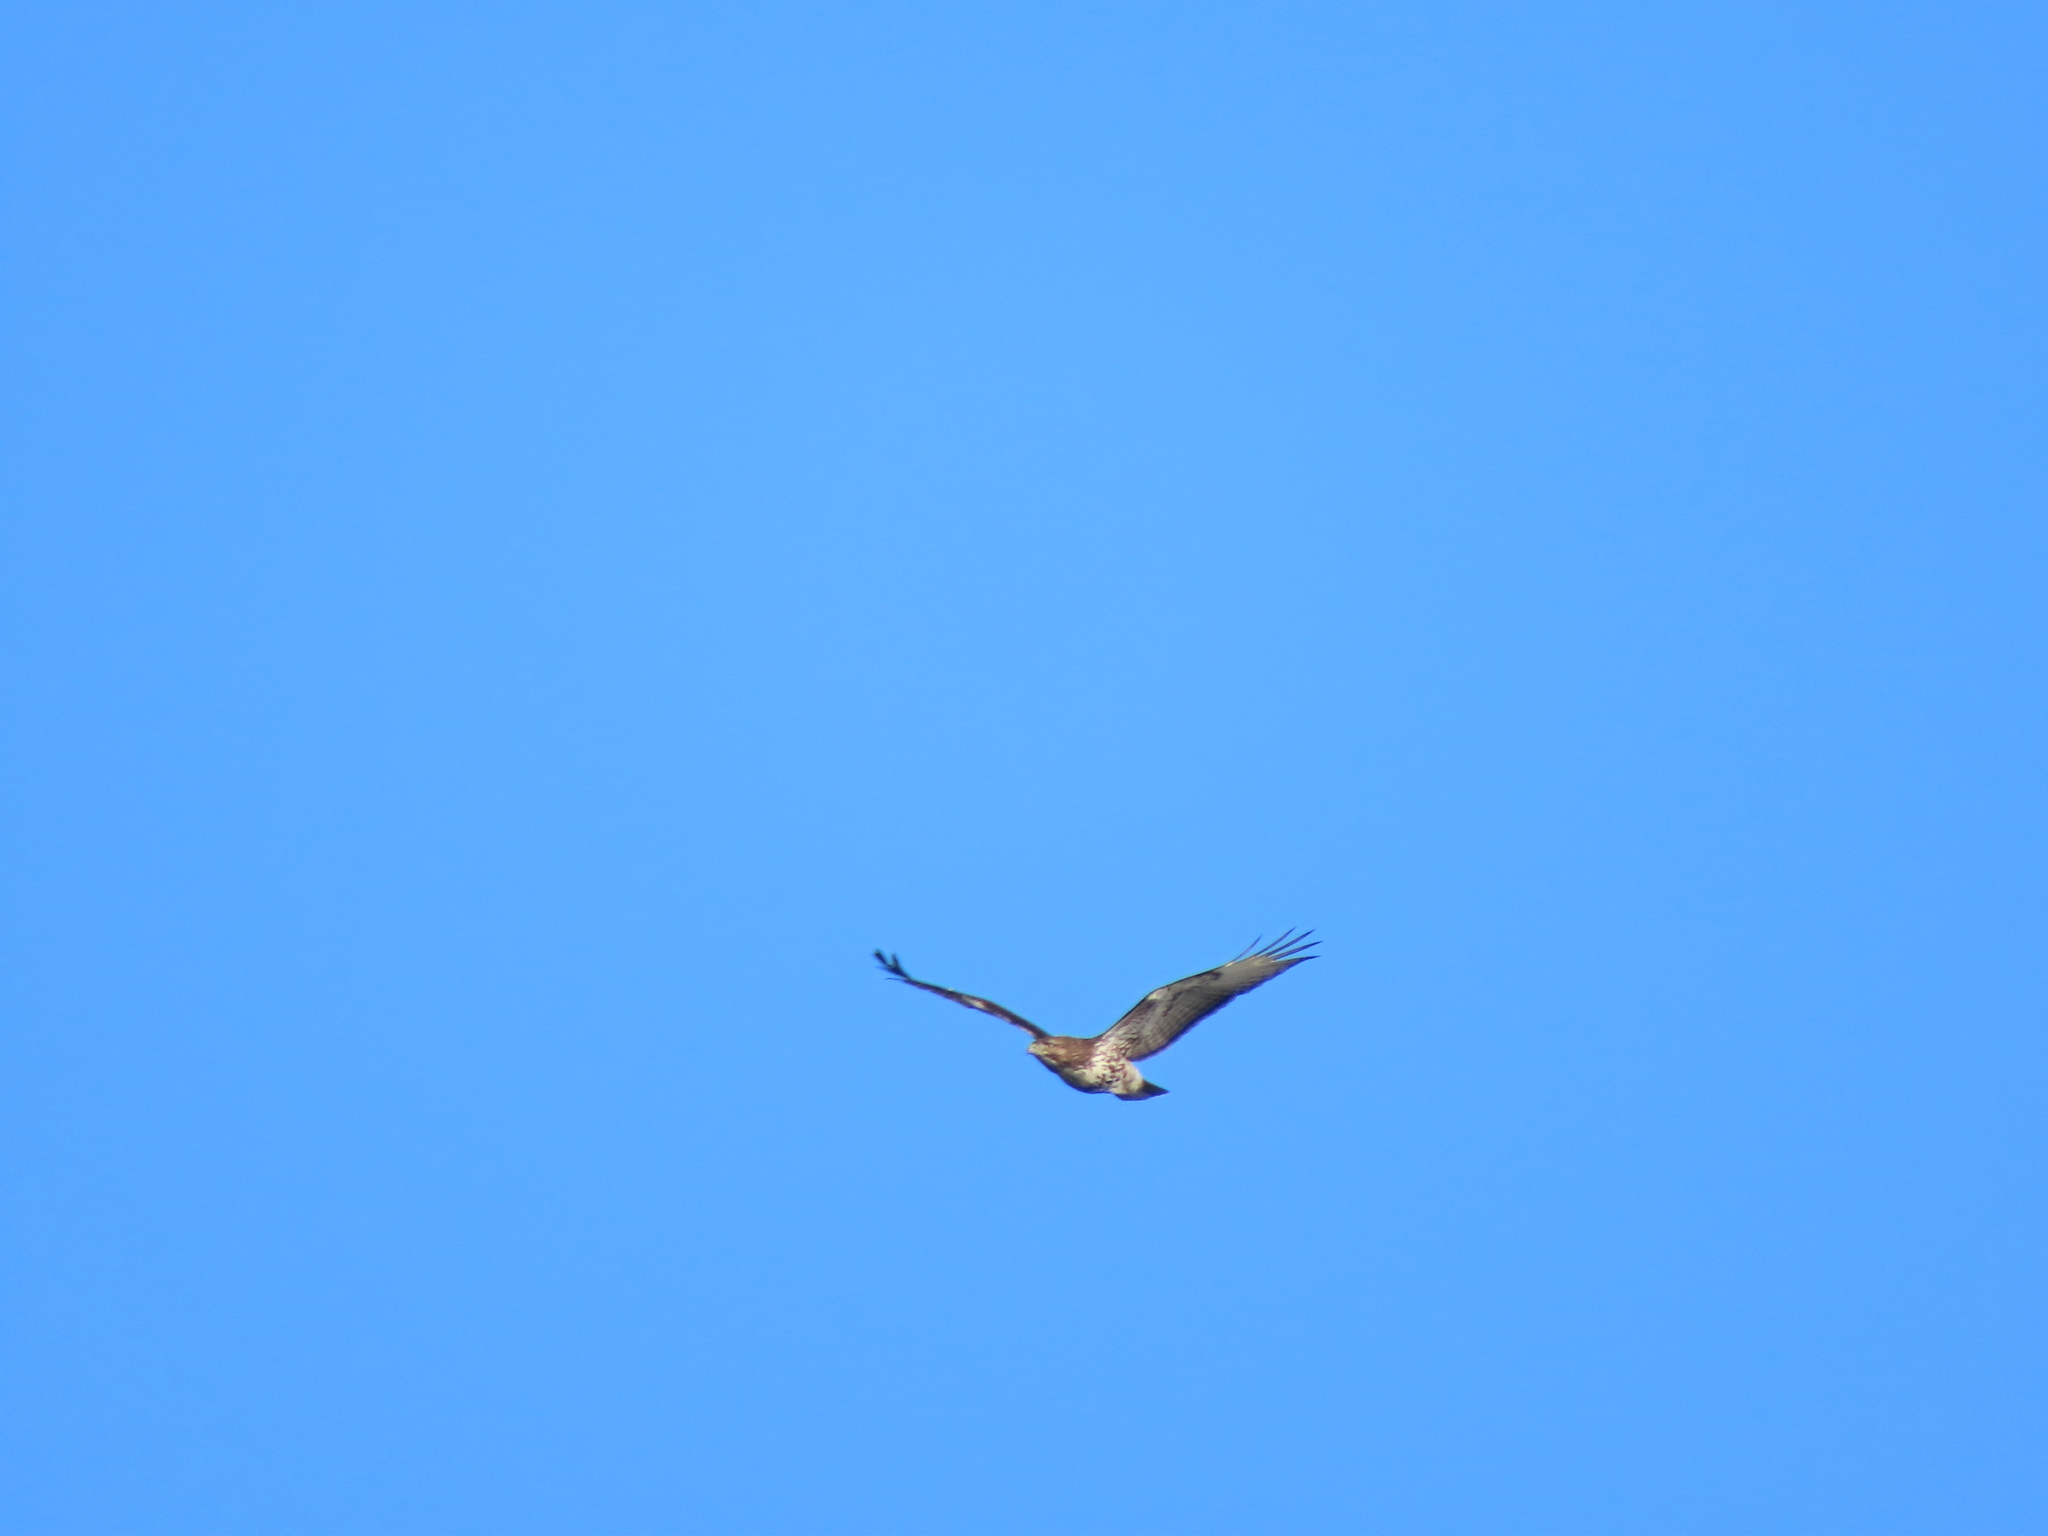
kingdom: Animalia
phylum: Chordata
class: Aves
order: Accipitriformes
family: Accipitridae
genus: Buteo
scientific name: Buteo jamaicensis
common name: Red-tailed hawk
